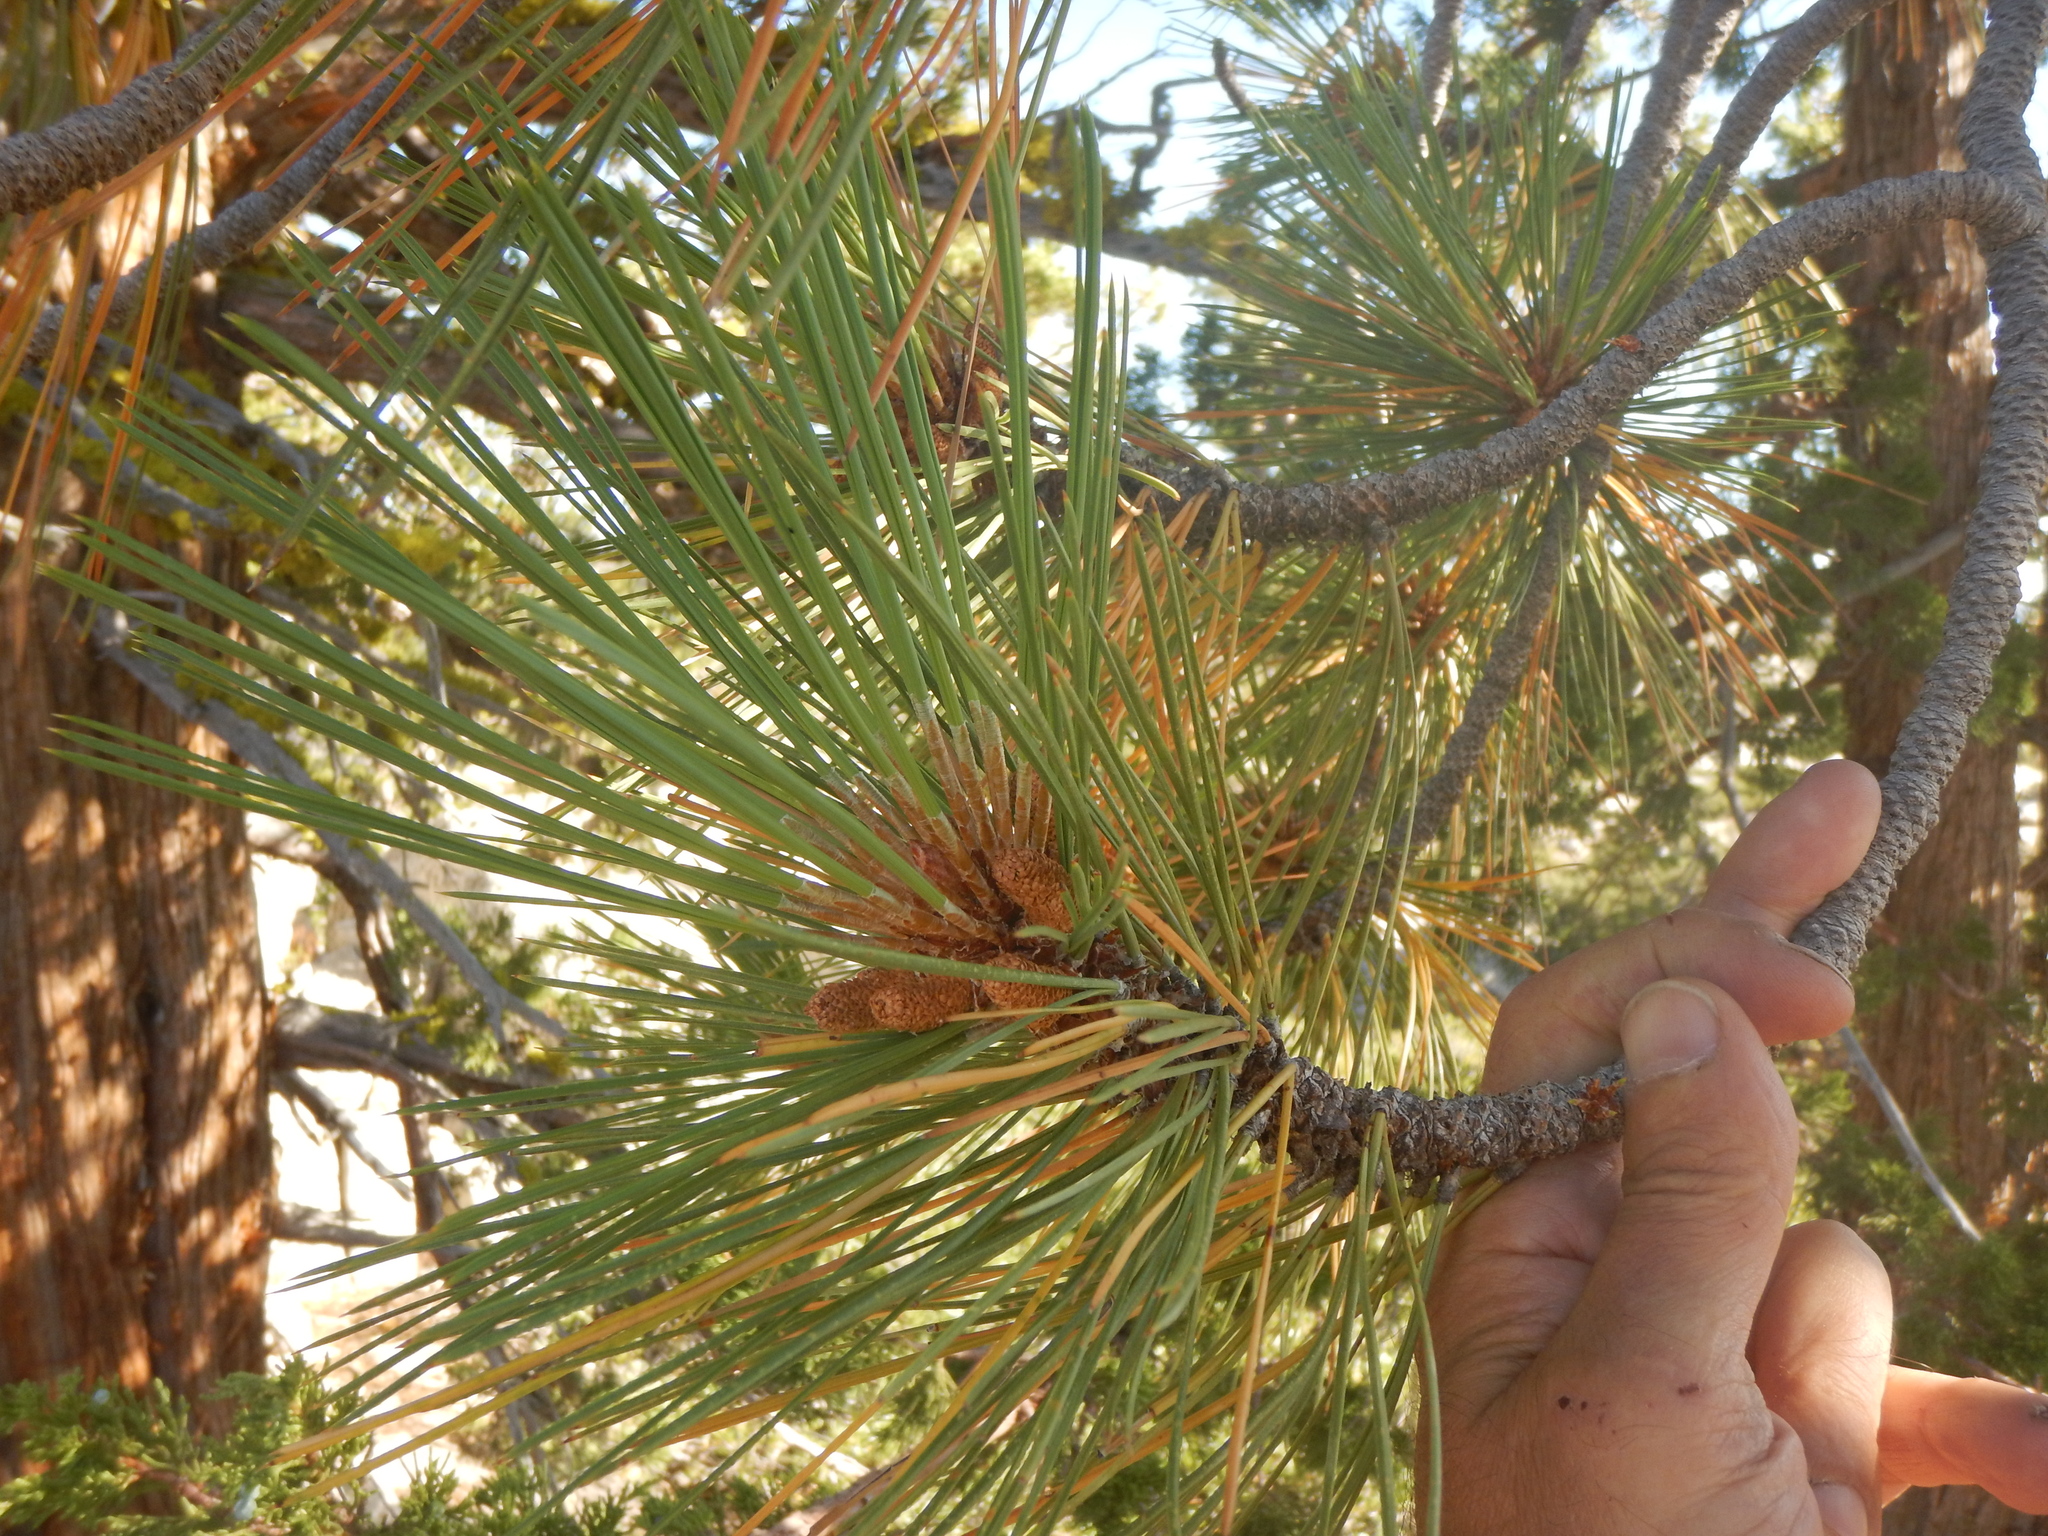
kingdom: Plantae
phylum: Tracheophyta
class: Pinopsida
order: Pinales
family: Pinaceae
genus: Pinus
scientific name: Pinus jeffreyi
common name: Jeffrey pine
